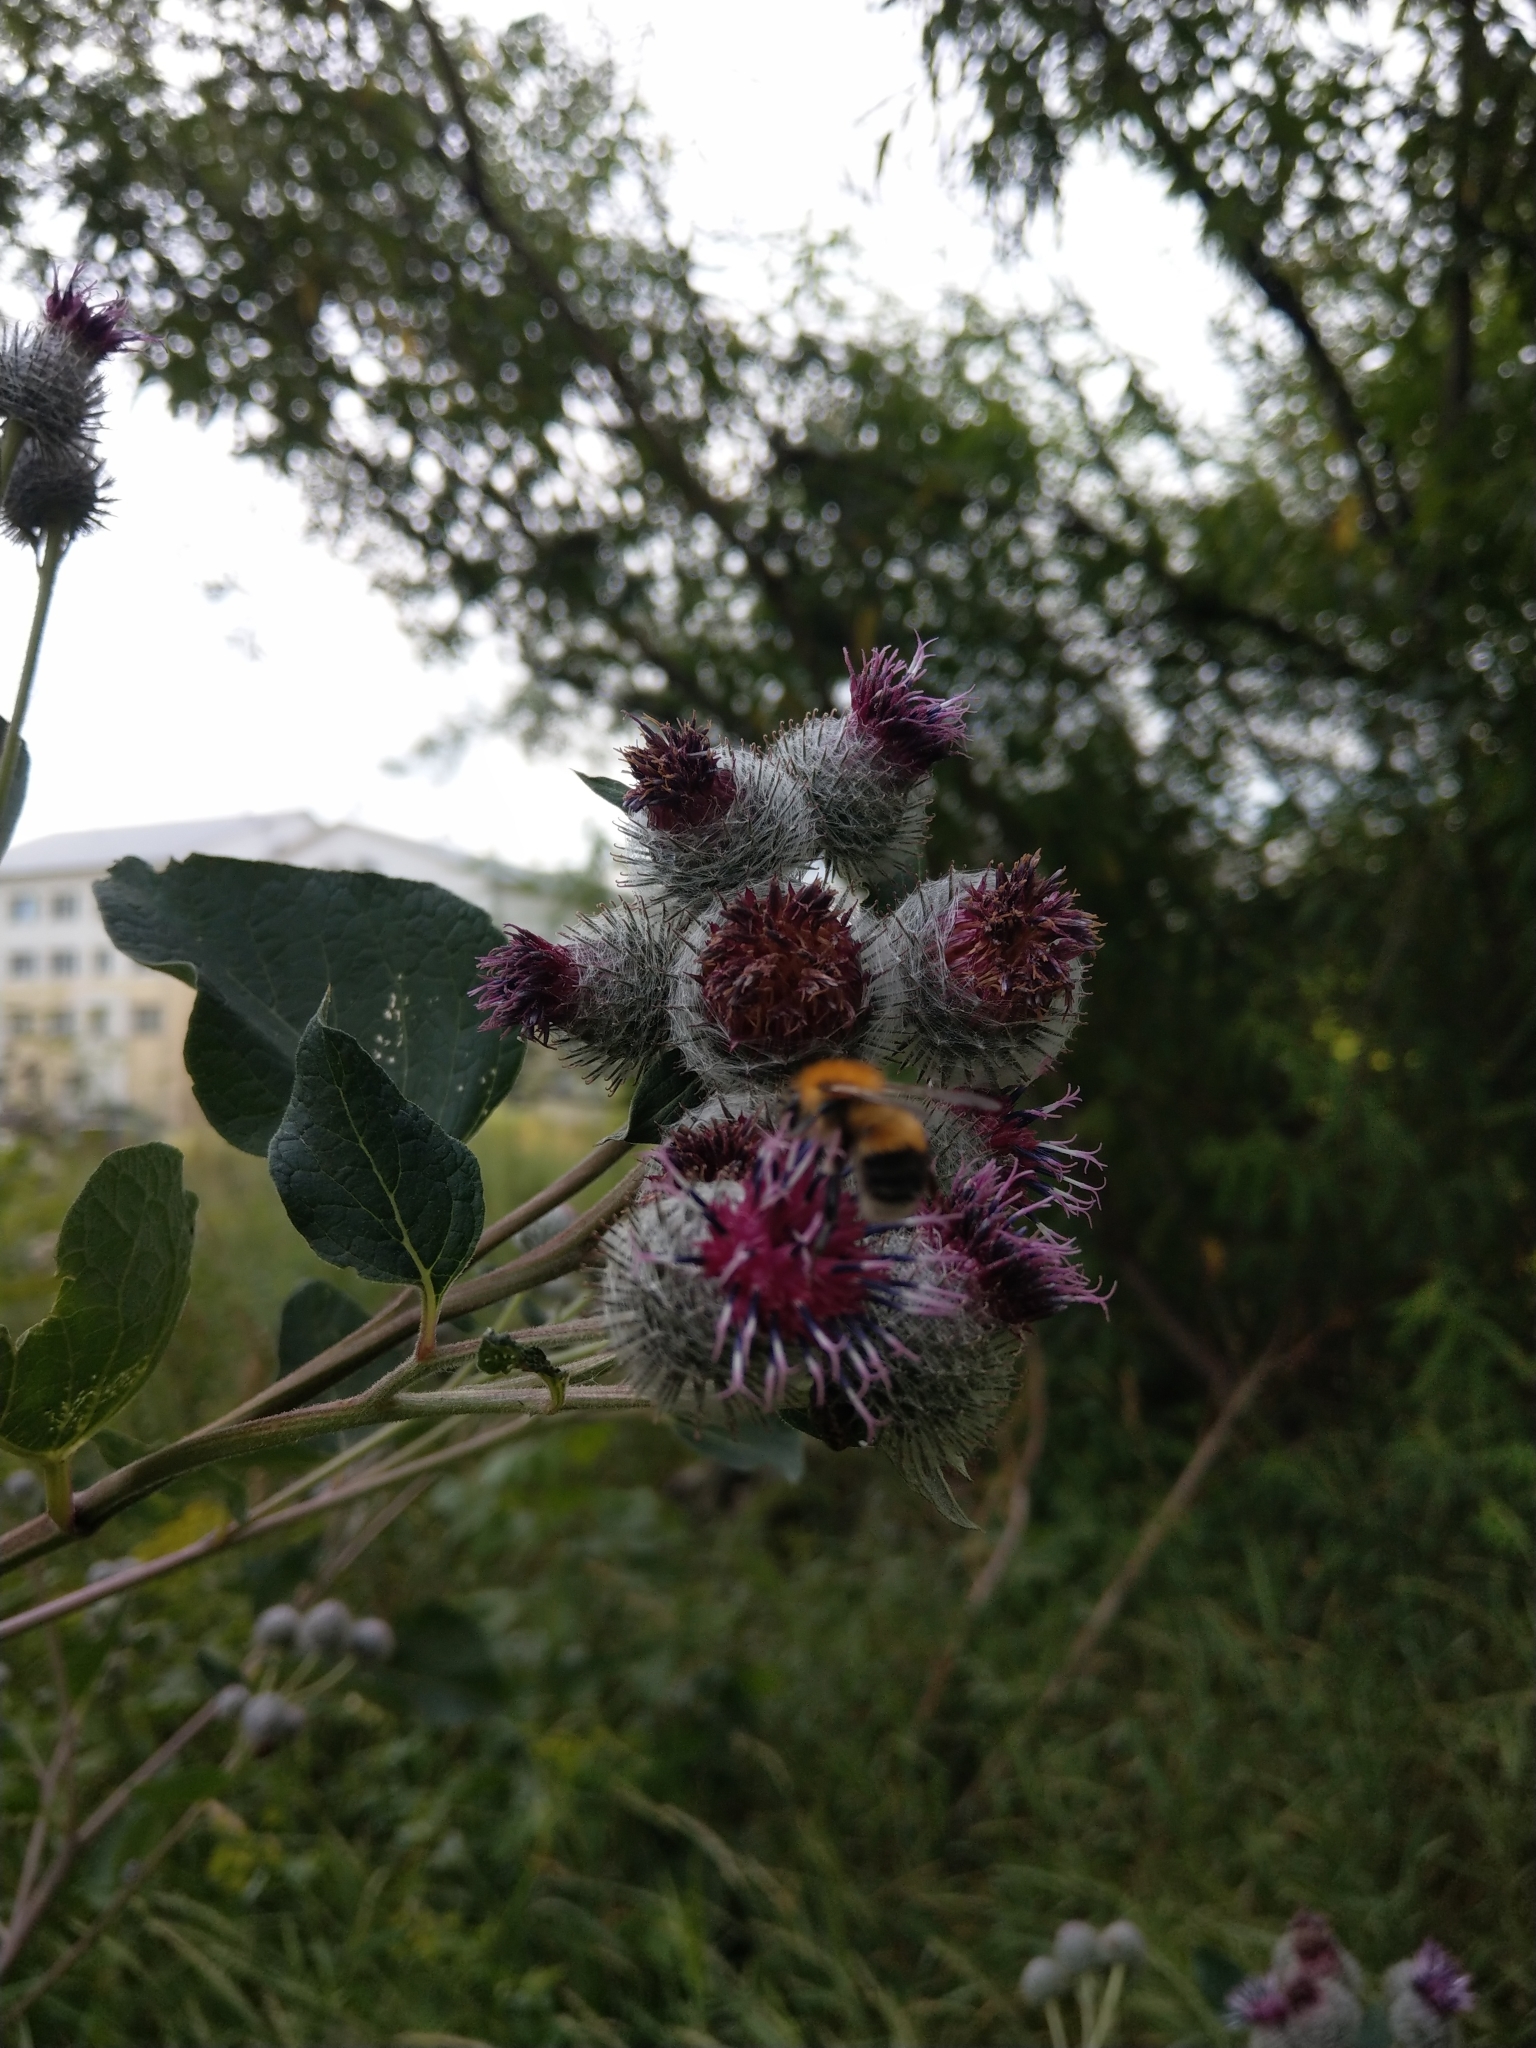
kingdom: Plantae
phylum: Tracheophyta
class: Magnoliopsida
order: Asterales
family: Asteraceae
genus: Arctium
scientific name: Arctium tomentosum
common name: Woolly burdock
